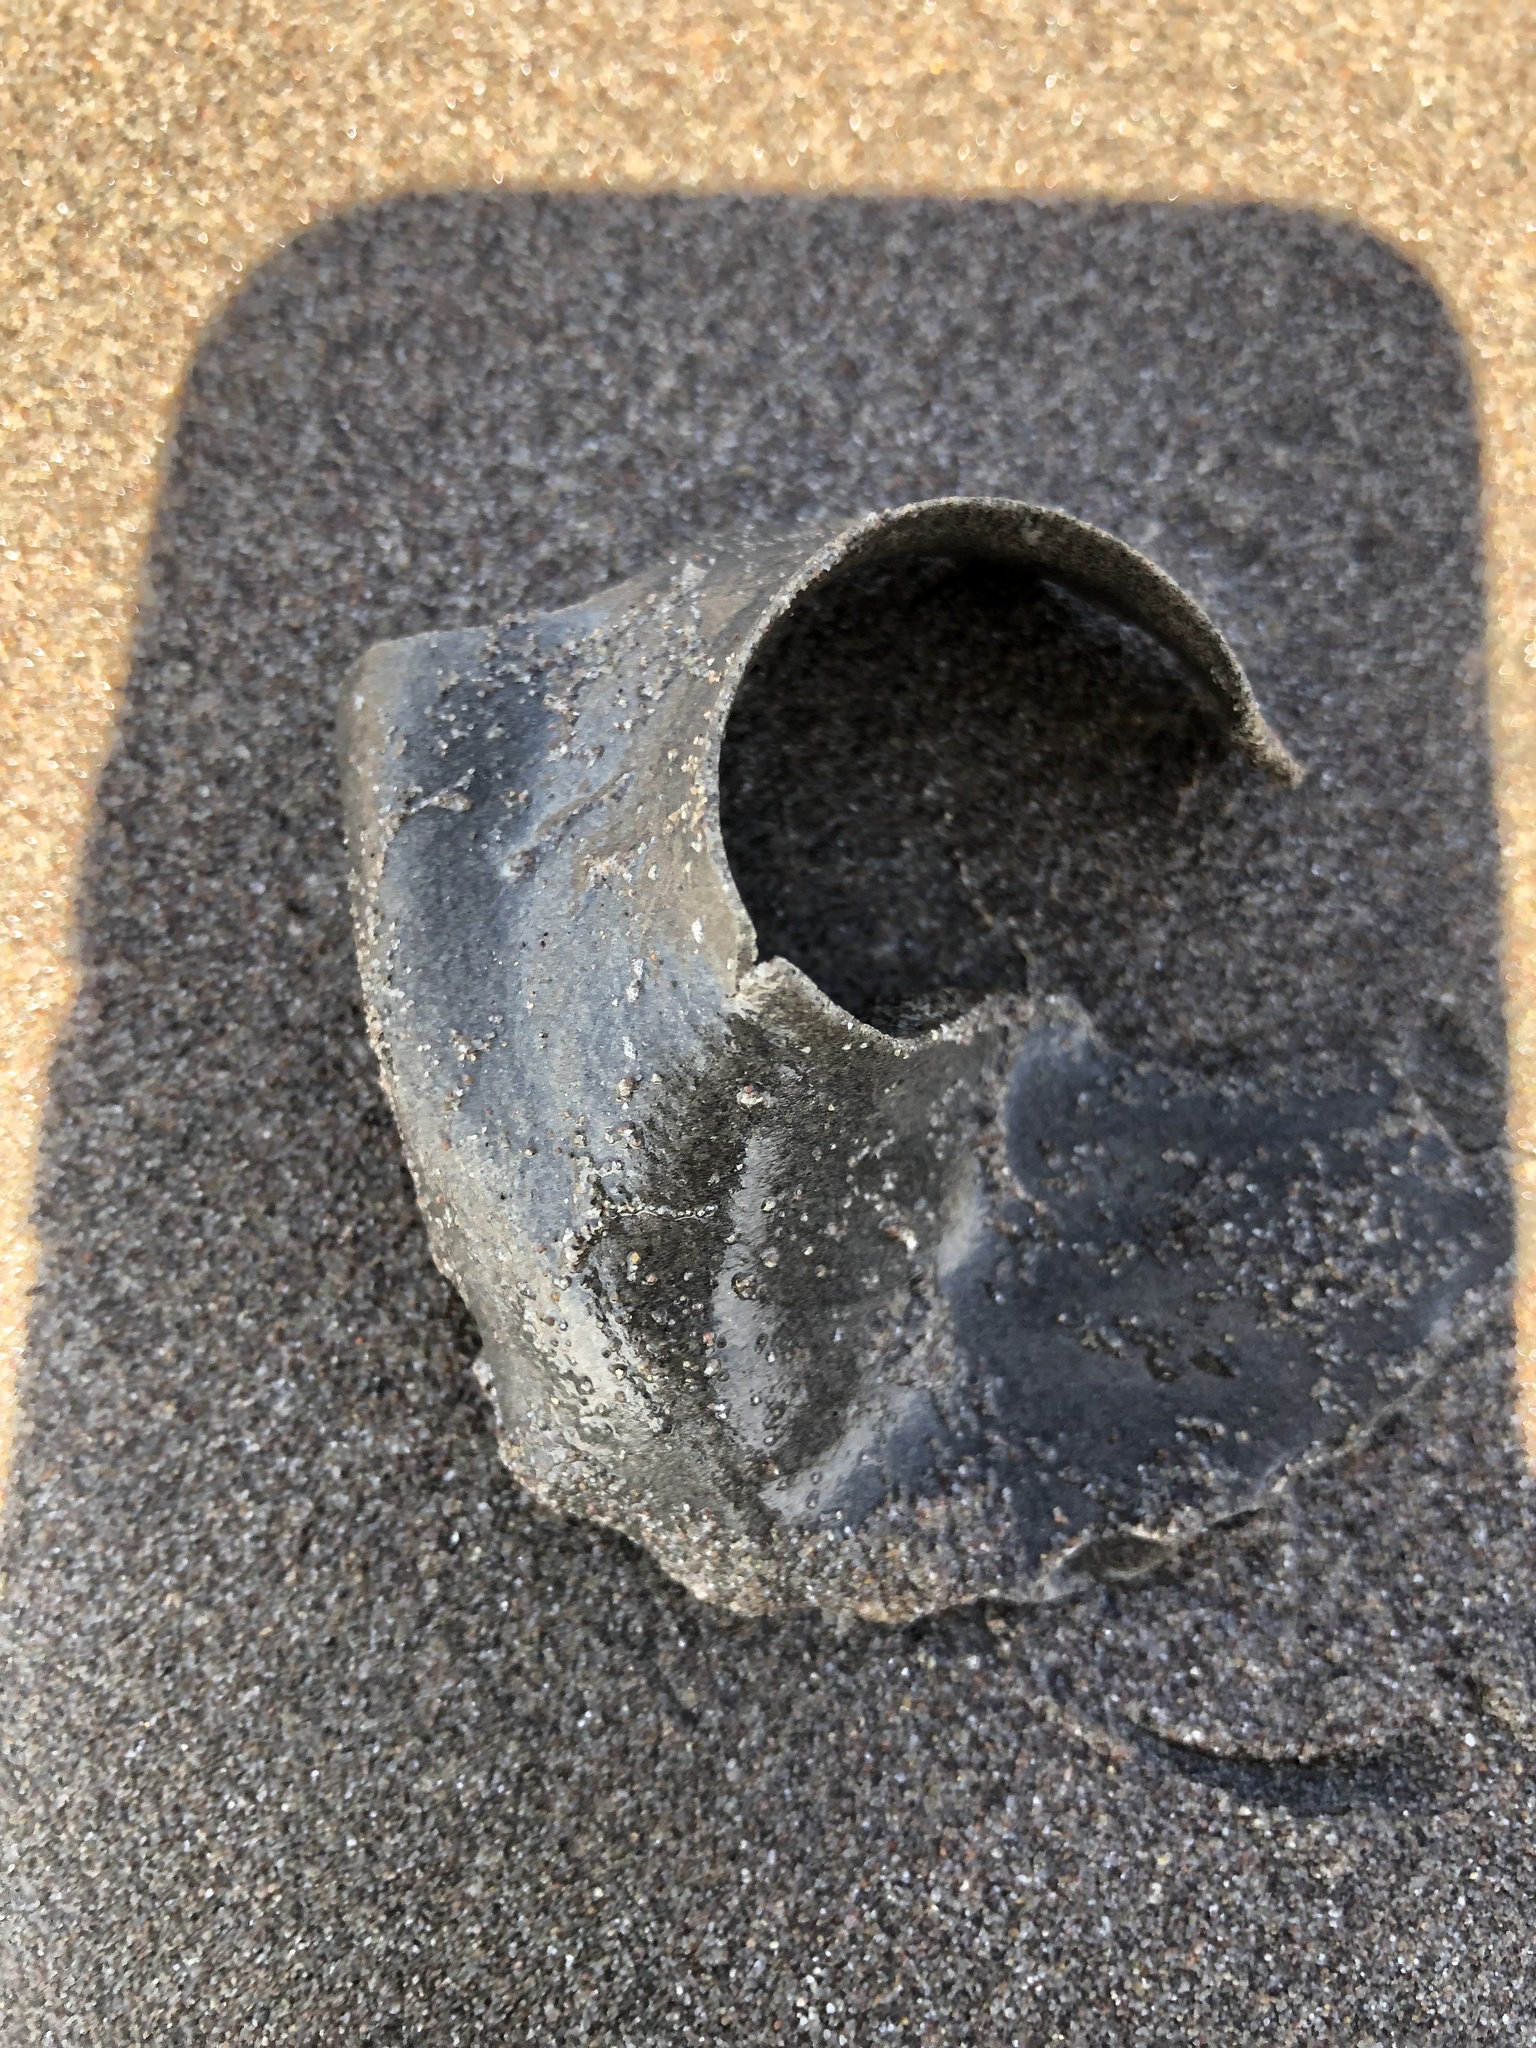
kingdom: Animalia
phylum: Mollusca
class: Gastropoda
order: Littorinimorpha
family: Naticidae
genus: Sinum
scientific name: Sinum cymba
